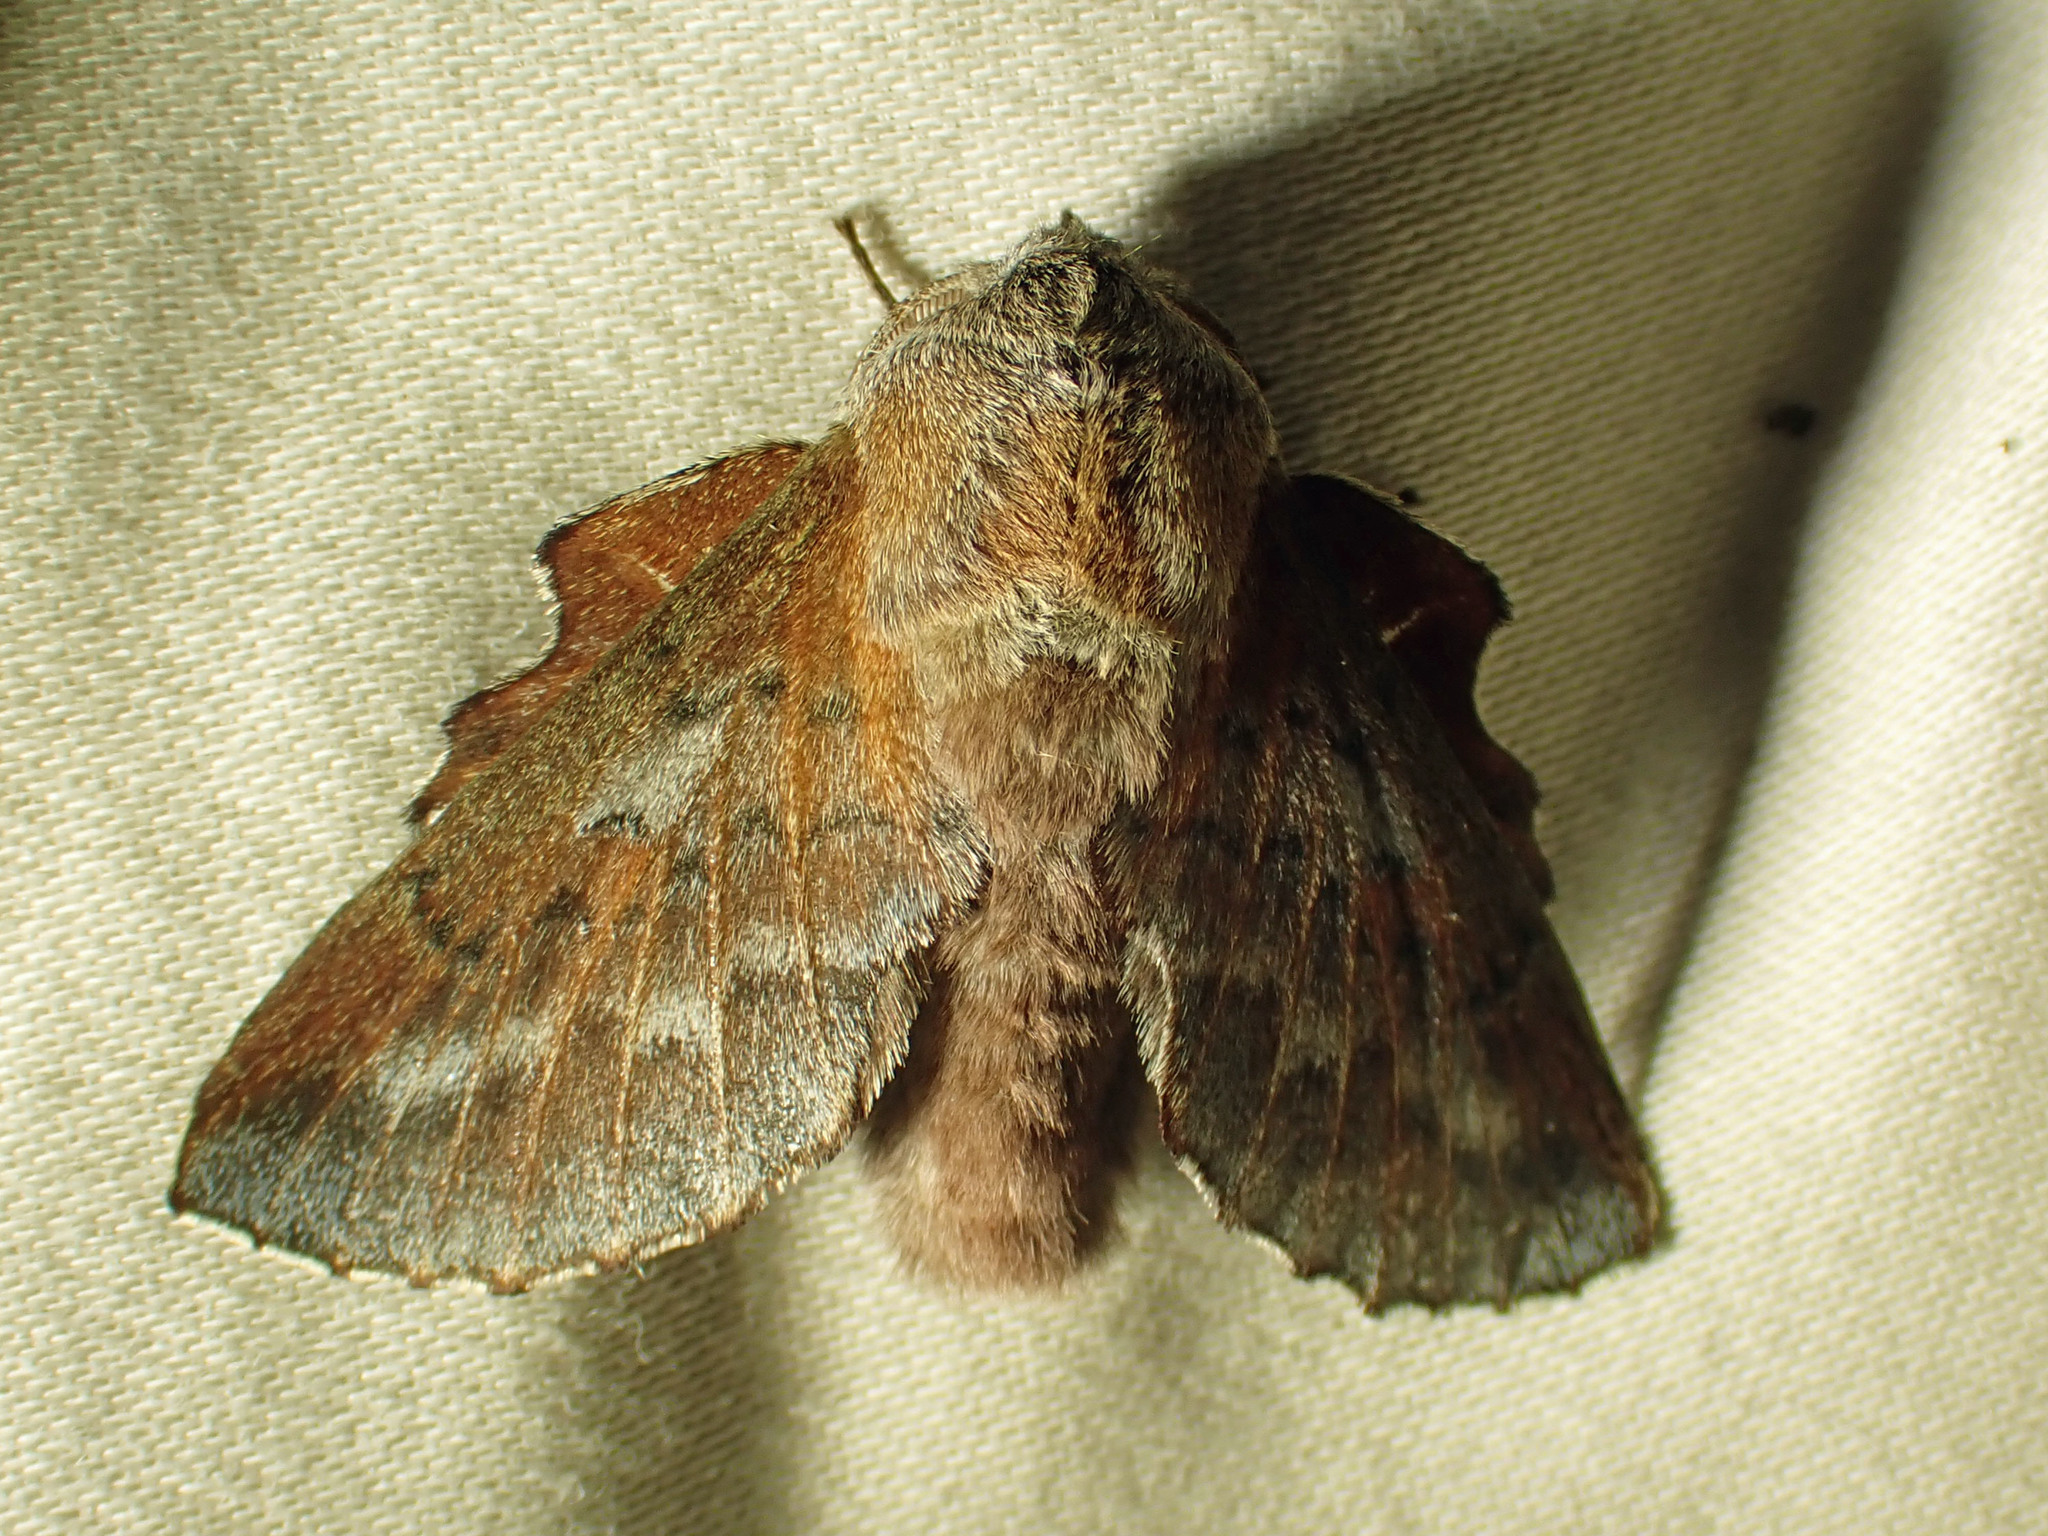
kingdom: Animalia
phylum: Arthropoda
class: Insecta
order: Lepidoptera
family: Lasiocampidae
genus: Phyllodesma
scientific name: Phyllodesma americana
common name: American lappet moth
